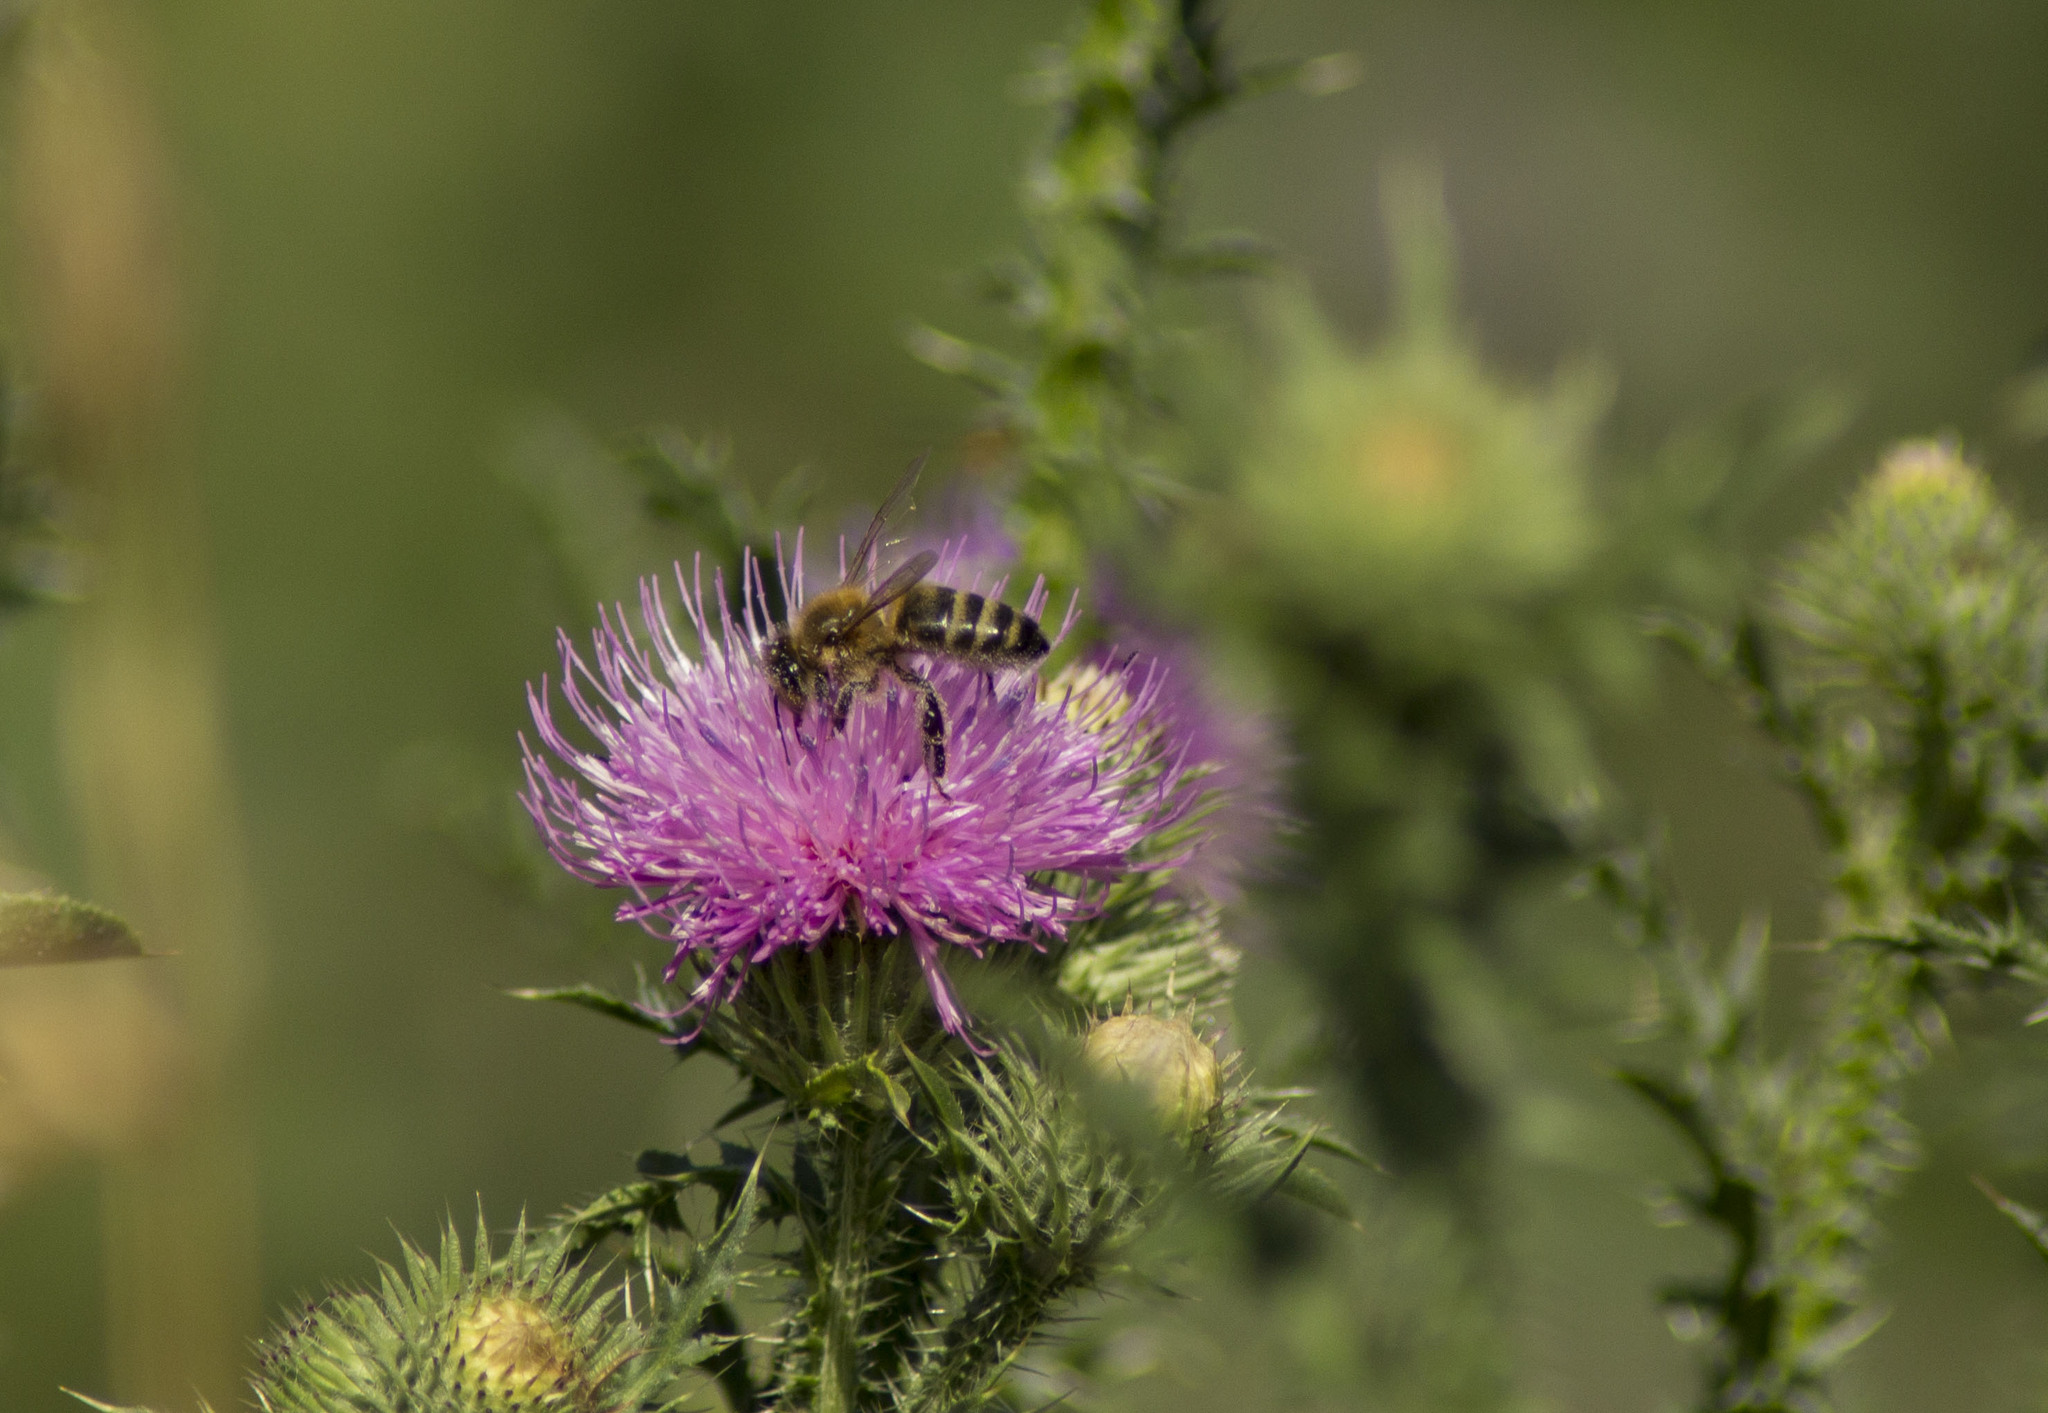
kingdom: Animalia
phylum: Arthropoda
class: Insecta
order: Hymenoptera
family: Apidae
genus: Apis
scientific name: Apis mellifera
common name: Honey bee
